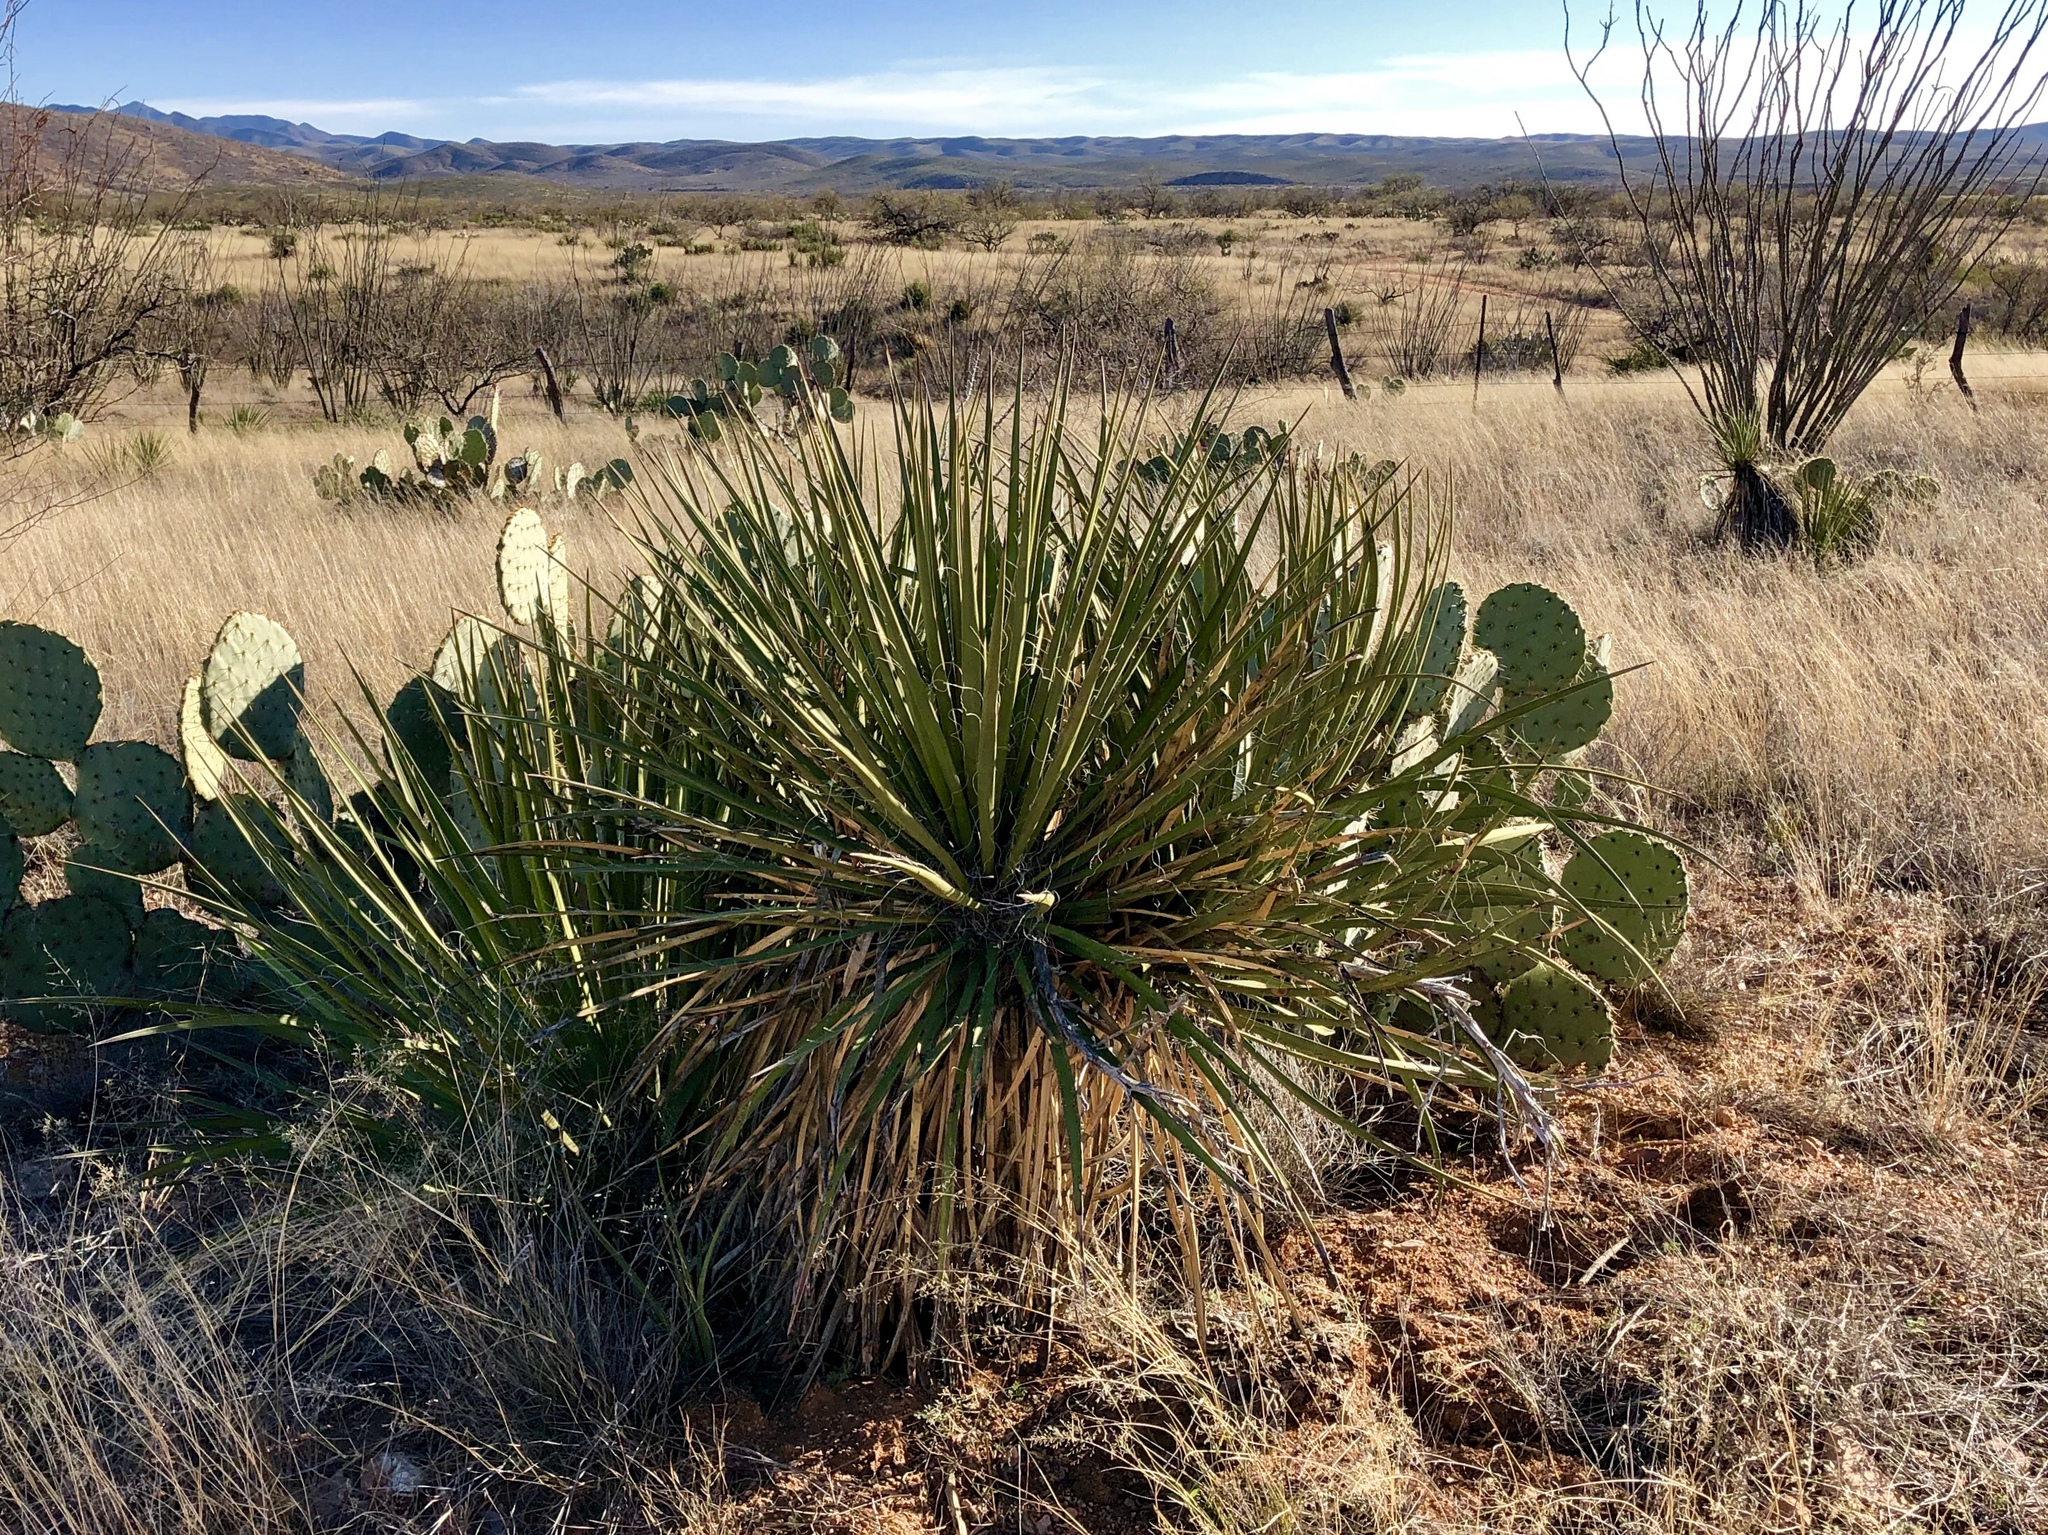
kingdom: Plantae
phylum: Tracheophyta
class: Liliopsida
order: Asparagales
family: Asparagaceae
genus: Yucca
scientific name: Yucca baccata
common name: Banana yucca
